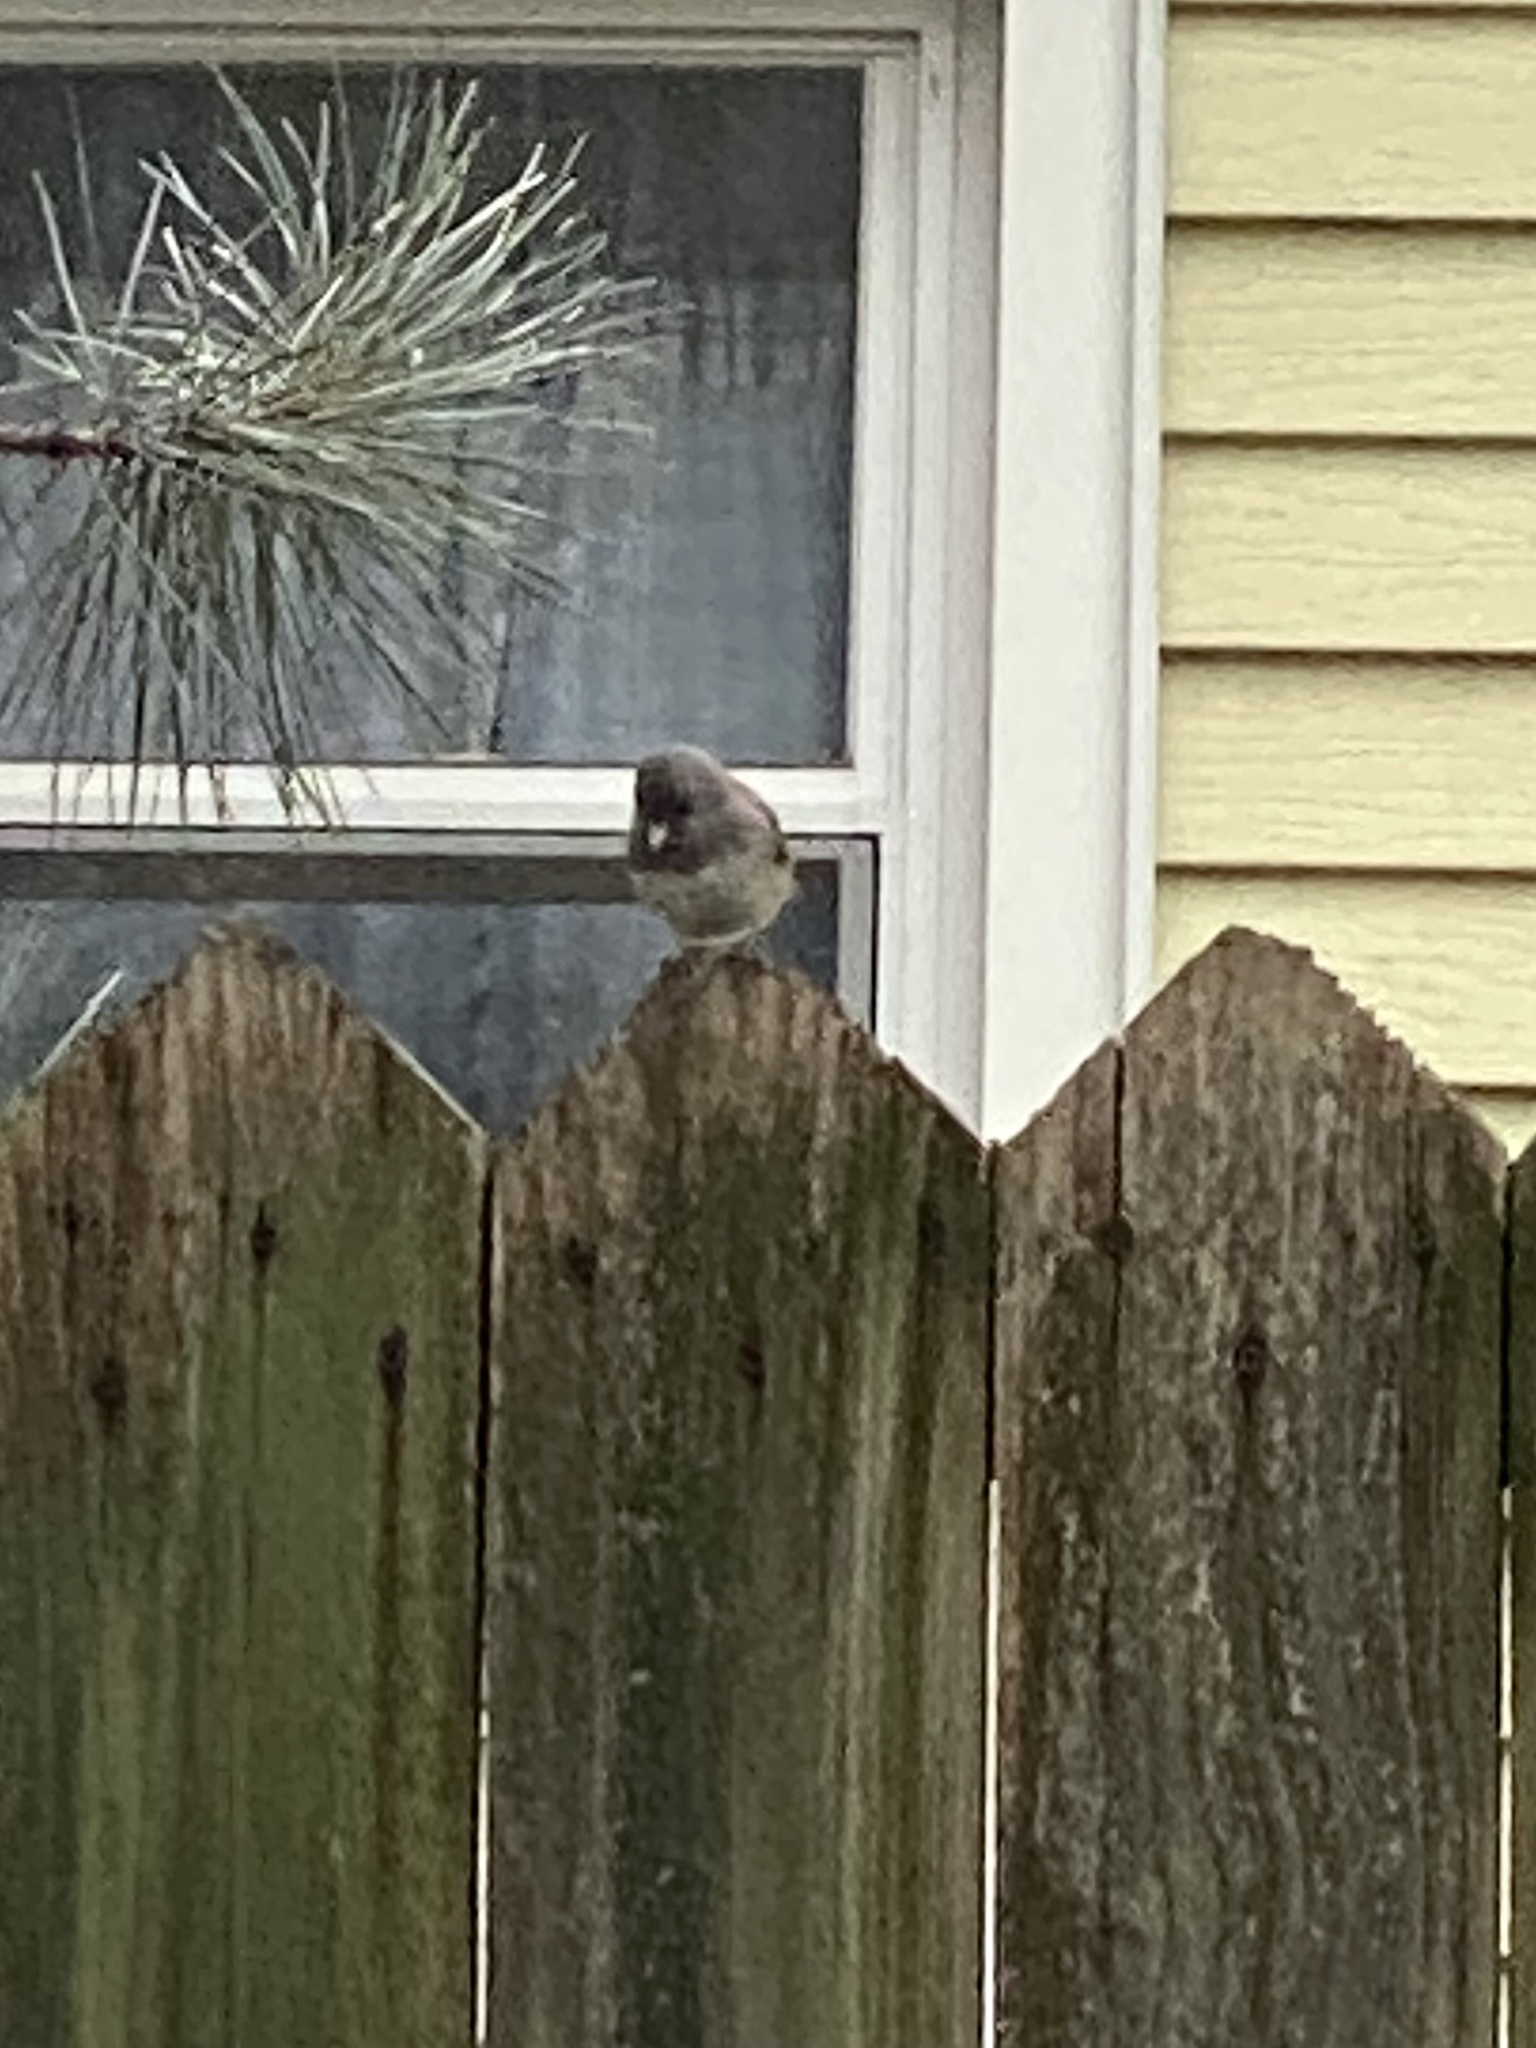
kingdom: Animalia
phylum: Chordata
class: Aves
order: Passeriformes
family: Passerellidae
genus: Junco
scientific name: Junco hyemalis
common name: Dark-eyed junco
